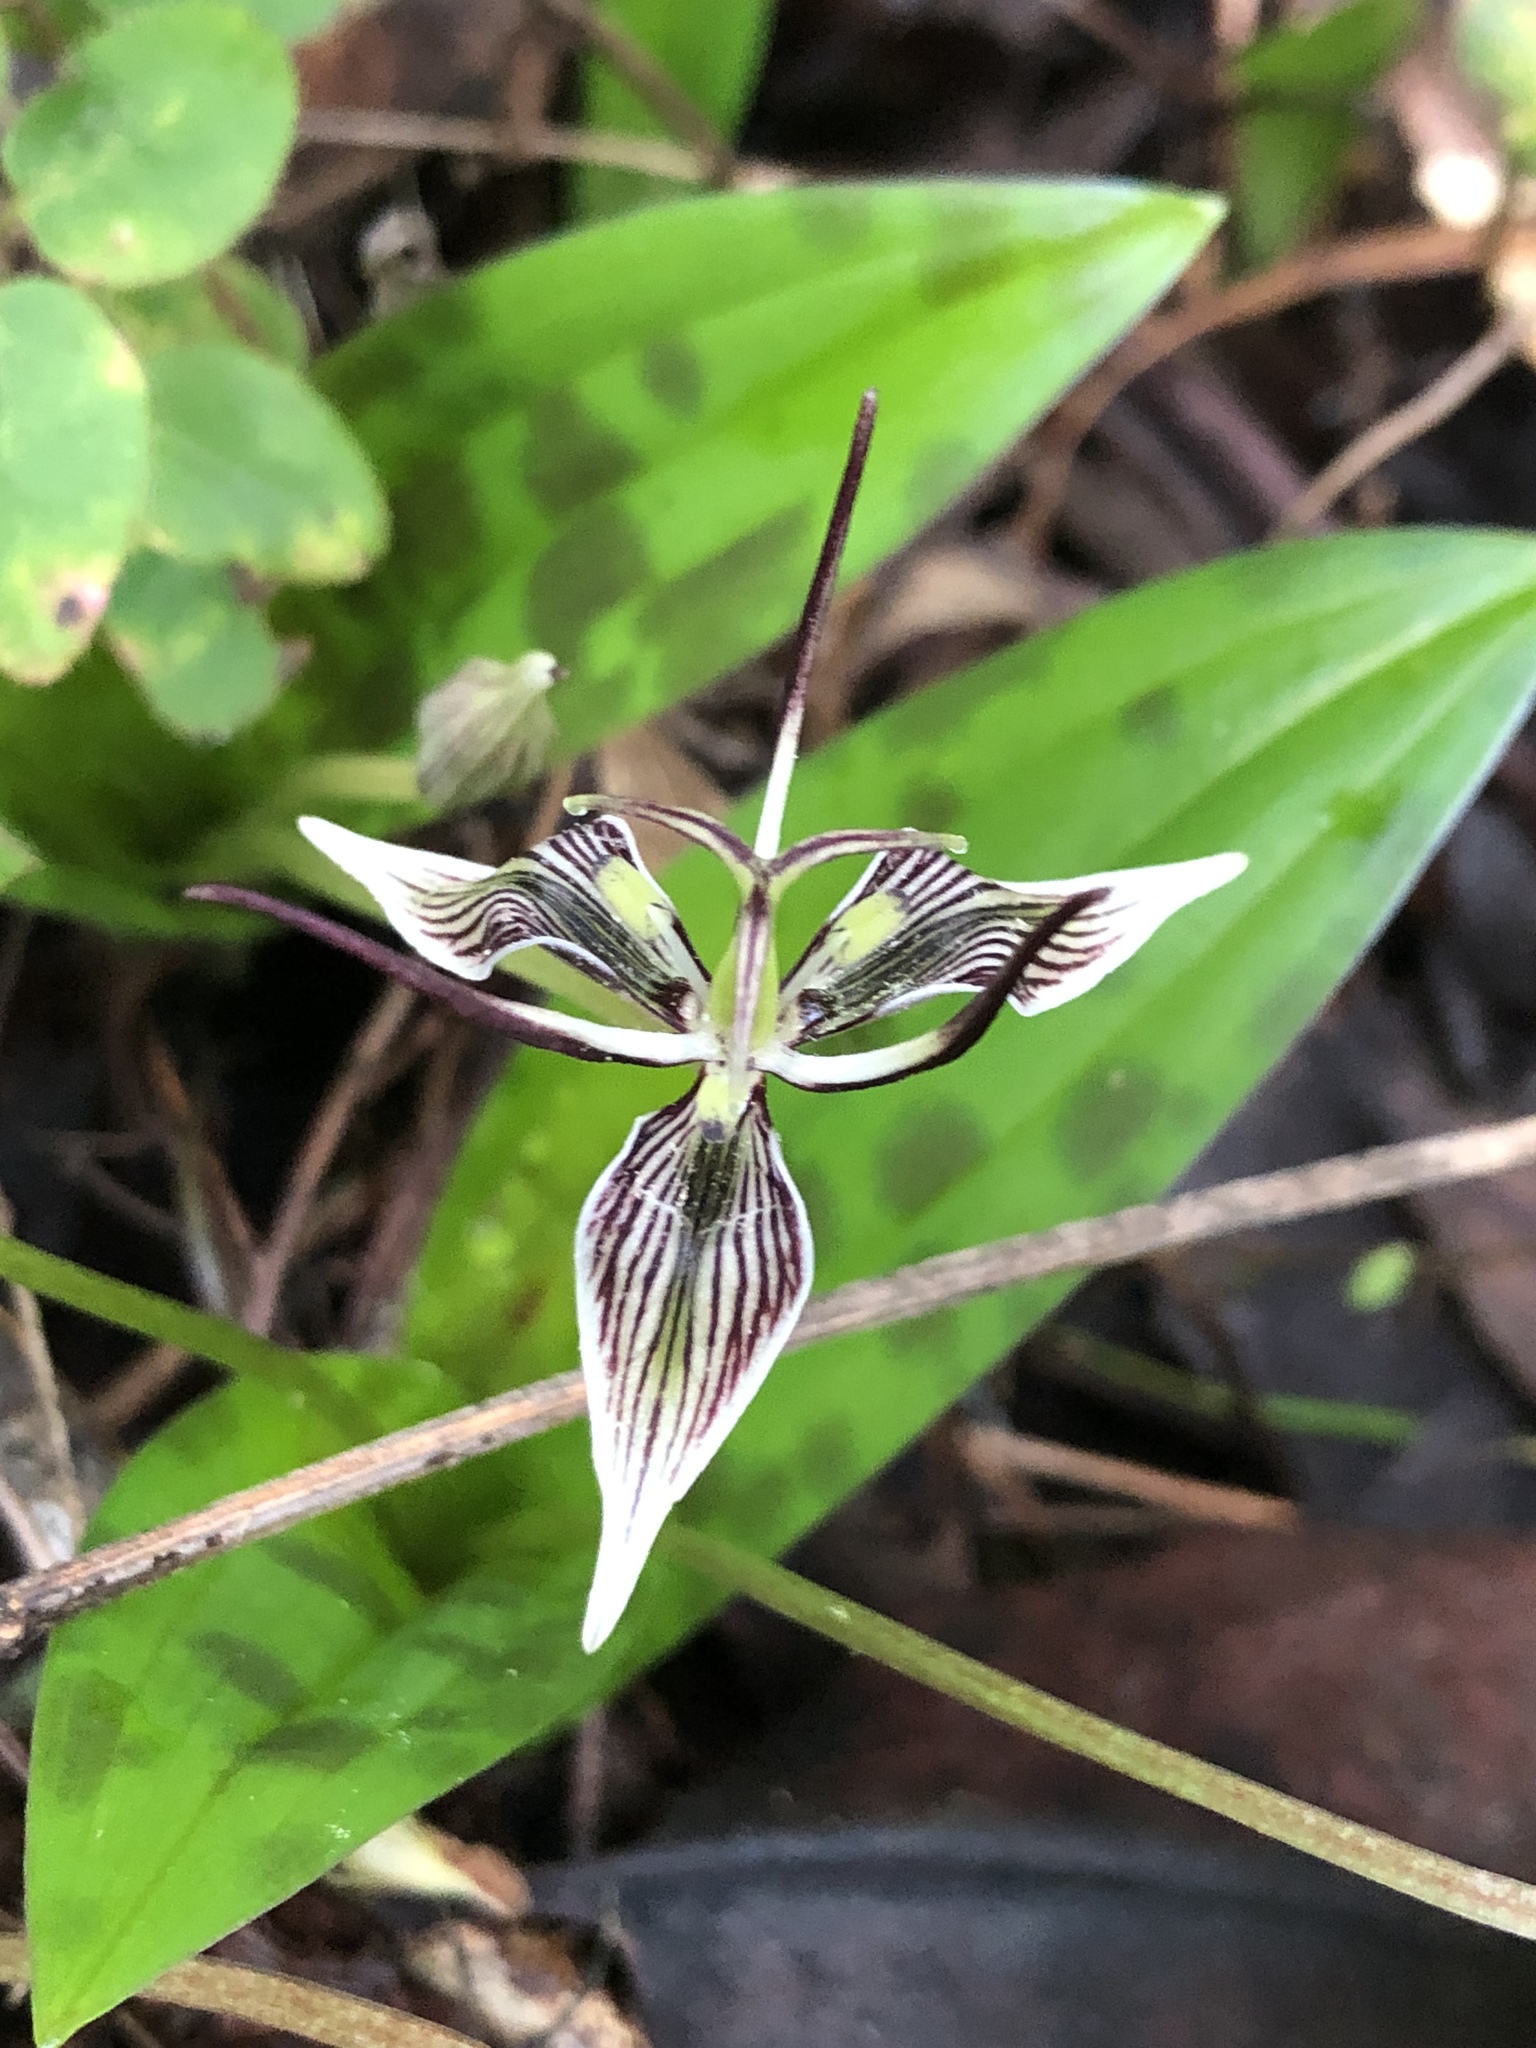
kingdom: Plantae
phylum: Tracheophyta
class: Liliopsida
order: Liliales
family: Liliaceae
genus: Scoliopus
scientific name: Scoliopus bigelovii
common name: Foetid adder's-tongue
